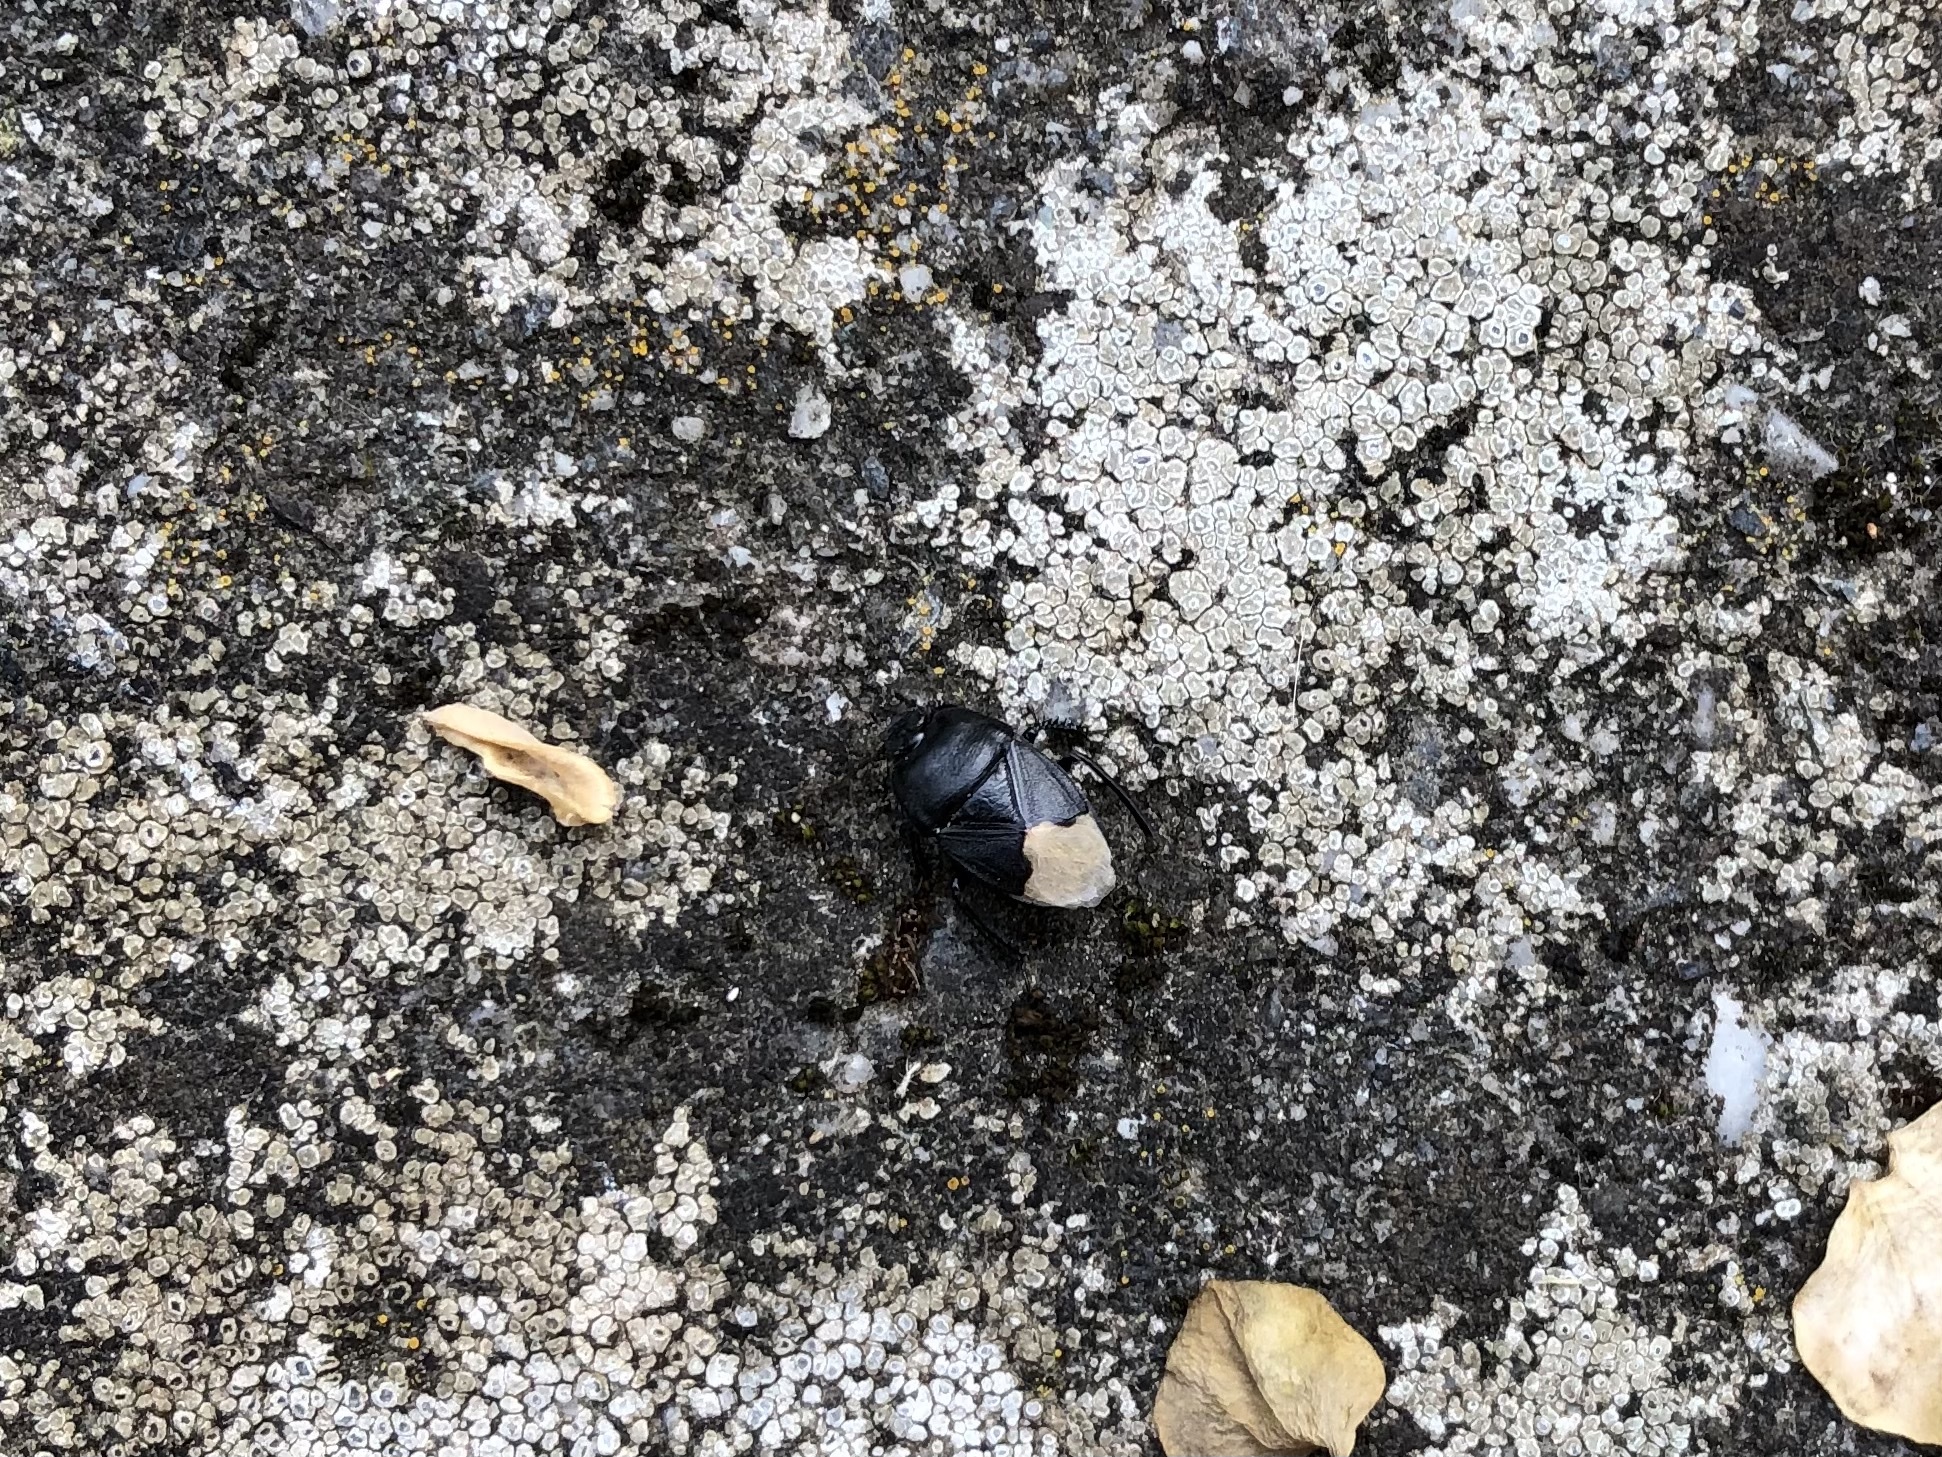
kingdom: Animalia
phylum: Arthropoda
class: Insecta
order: Hemiptera
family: Cydnidae
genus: Cydnus
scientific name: Cydnus aterrimus
